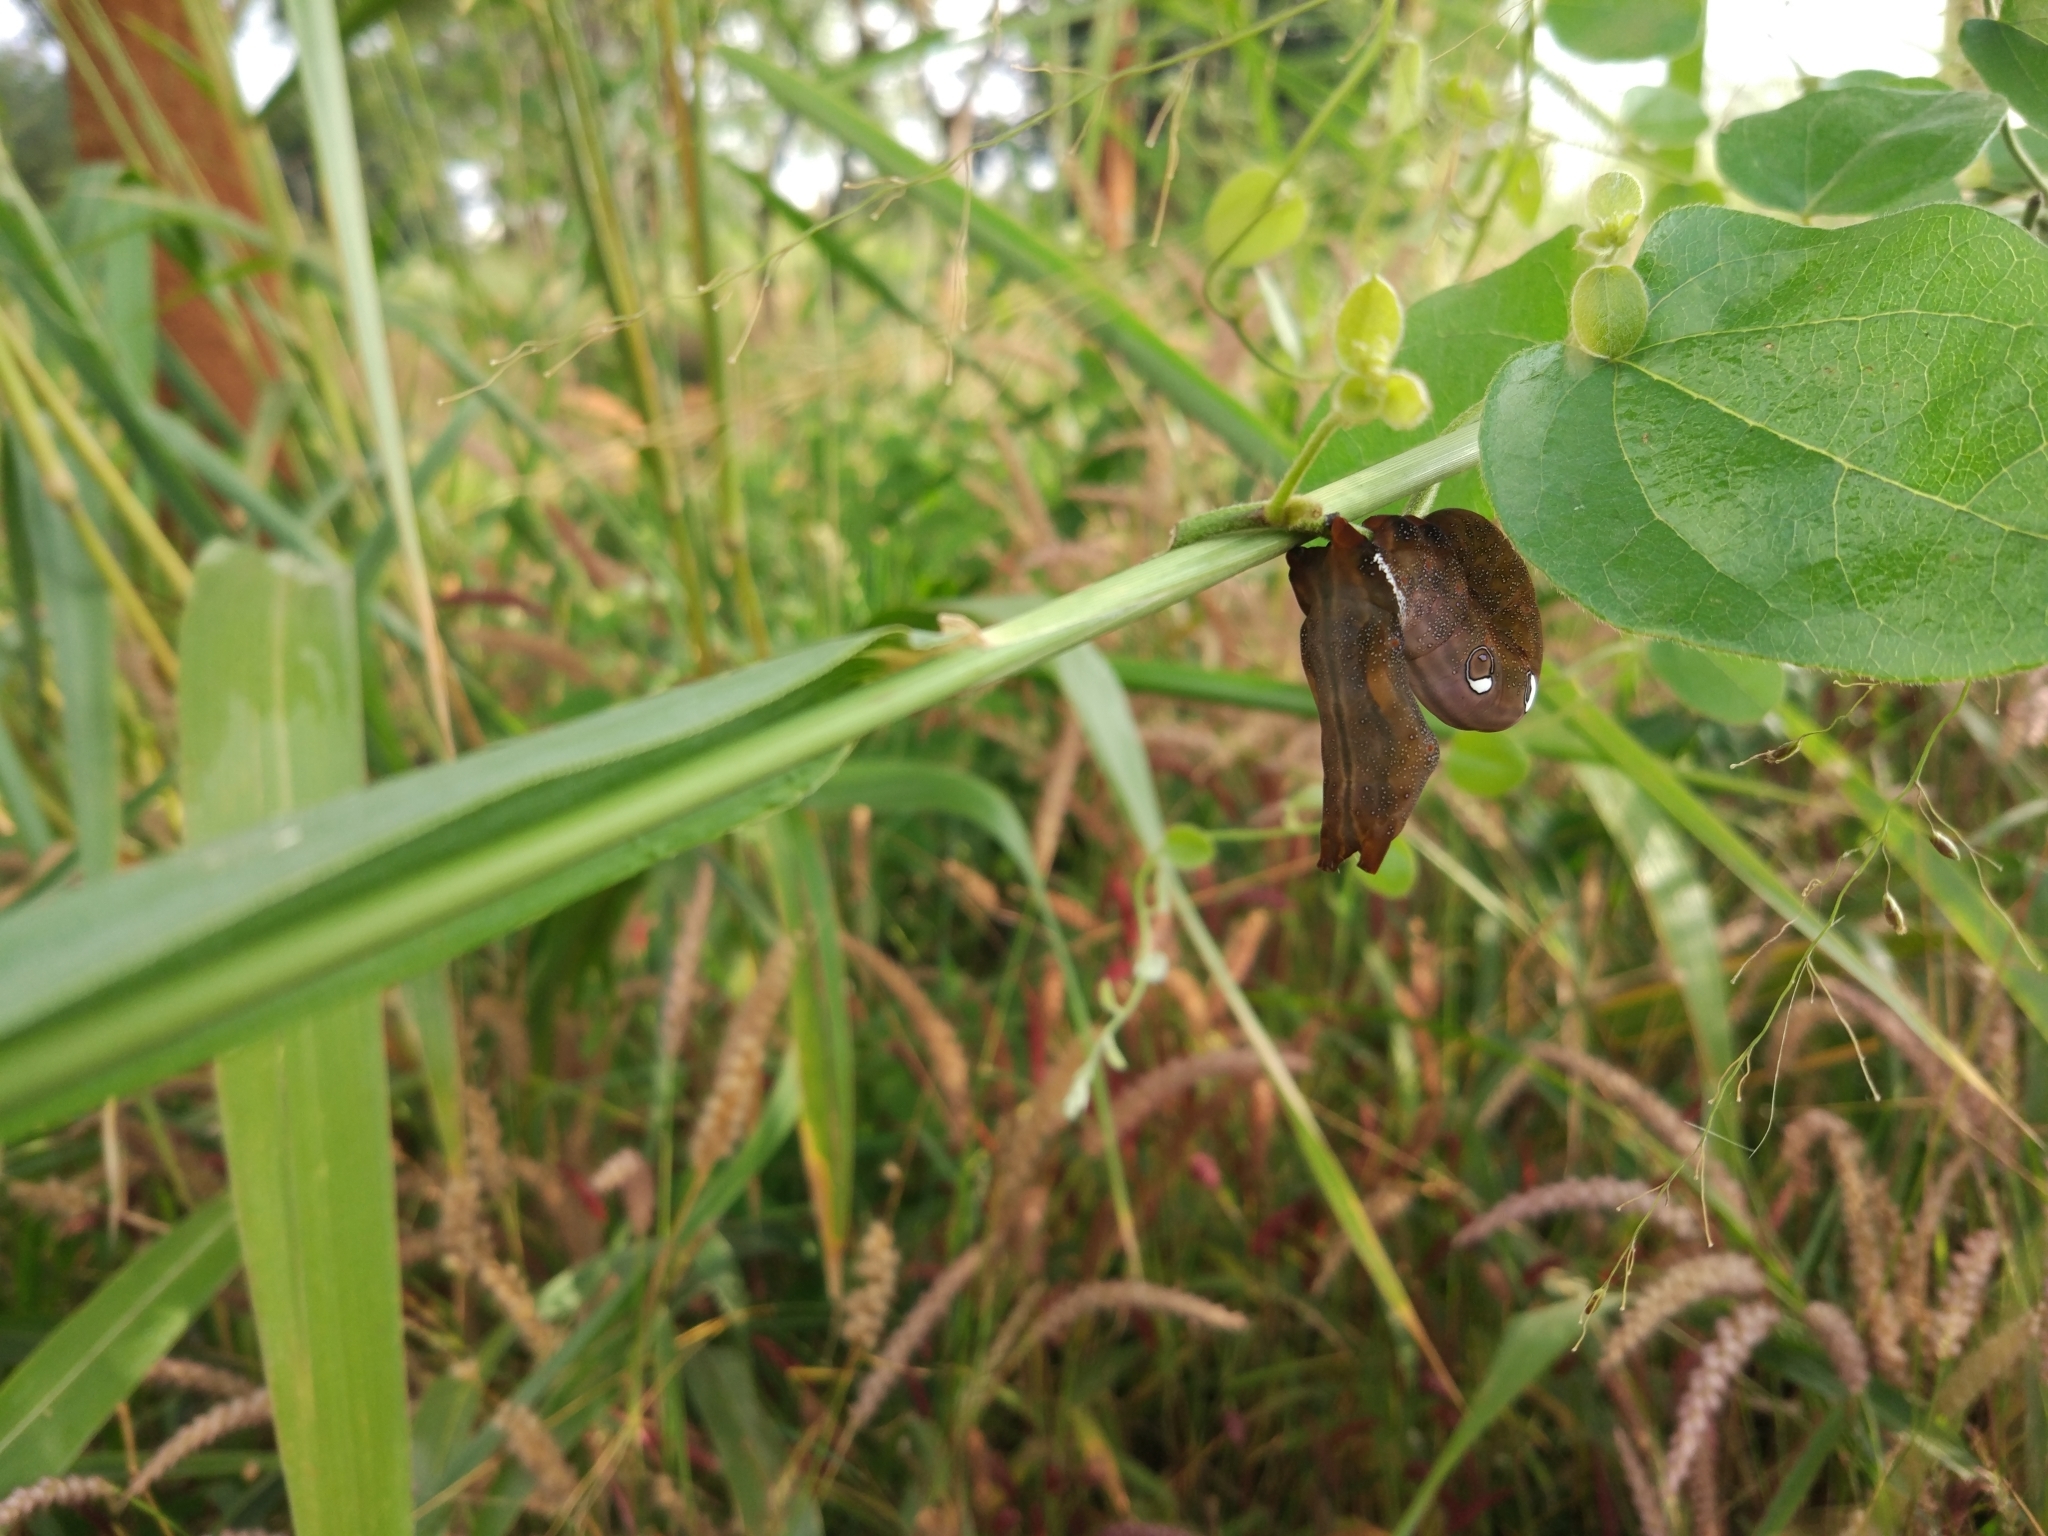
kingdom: Animalia
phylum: Arthropoda
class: Insecta
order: Lepidoptera
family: Erebidae
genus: Eudocima
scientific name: Eudocima phalonia
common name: Wasp
